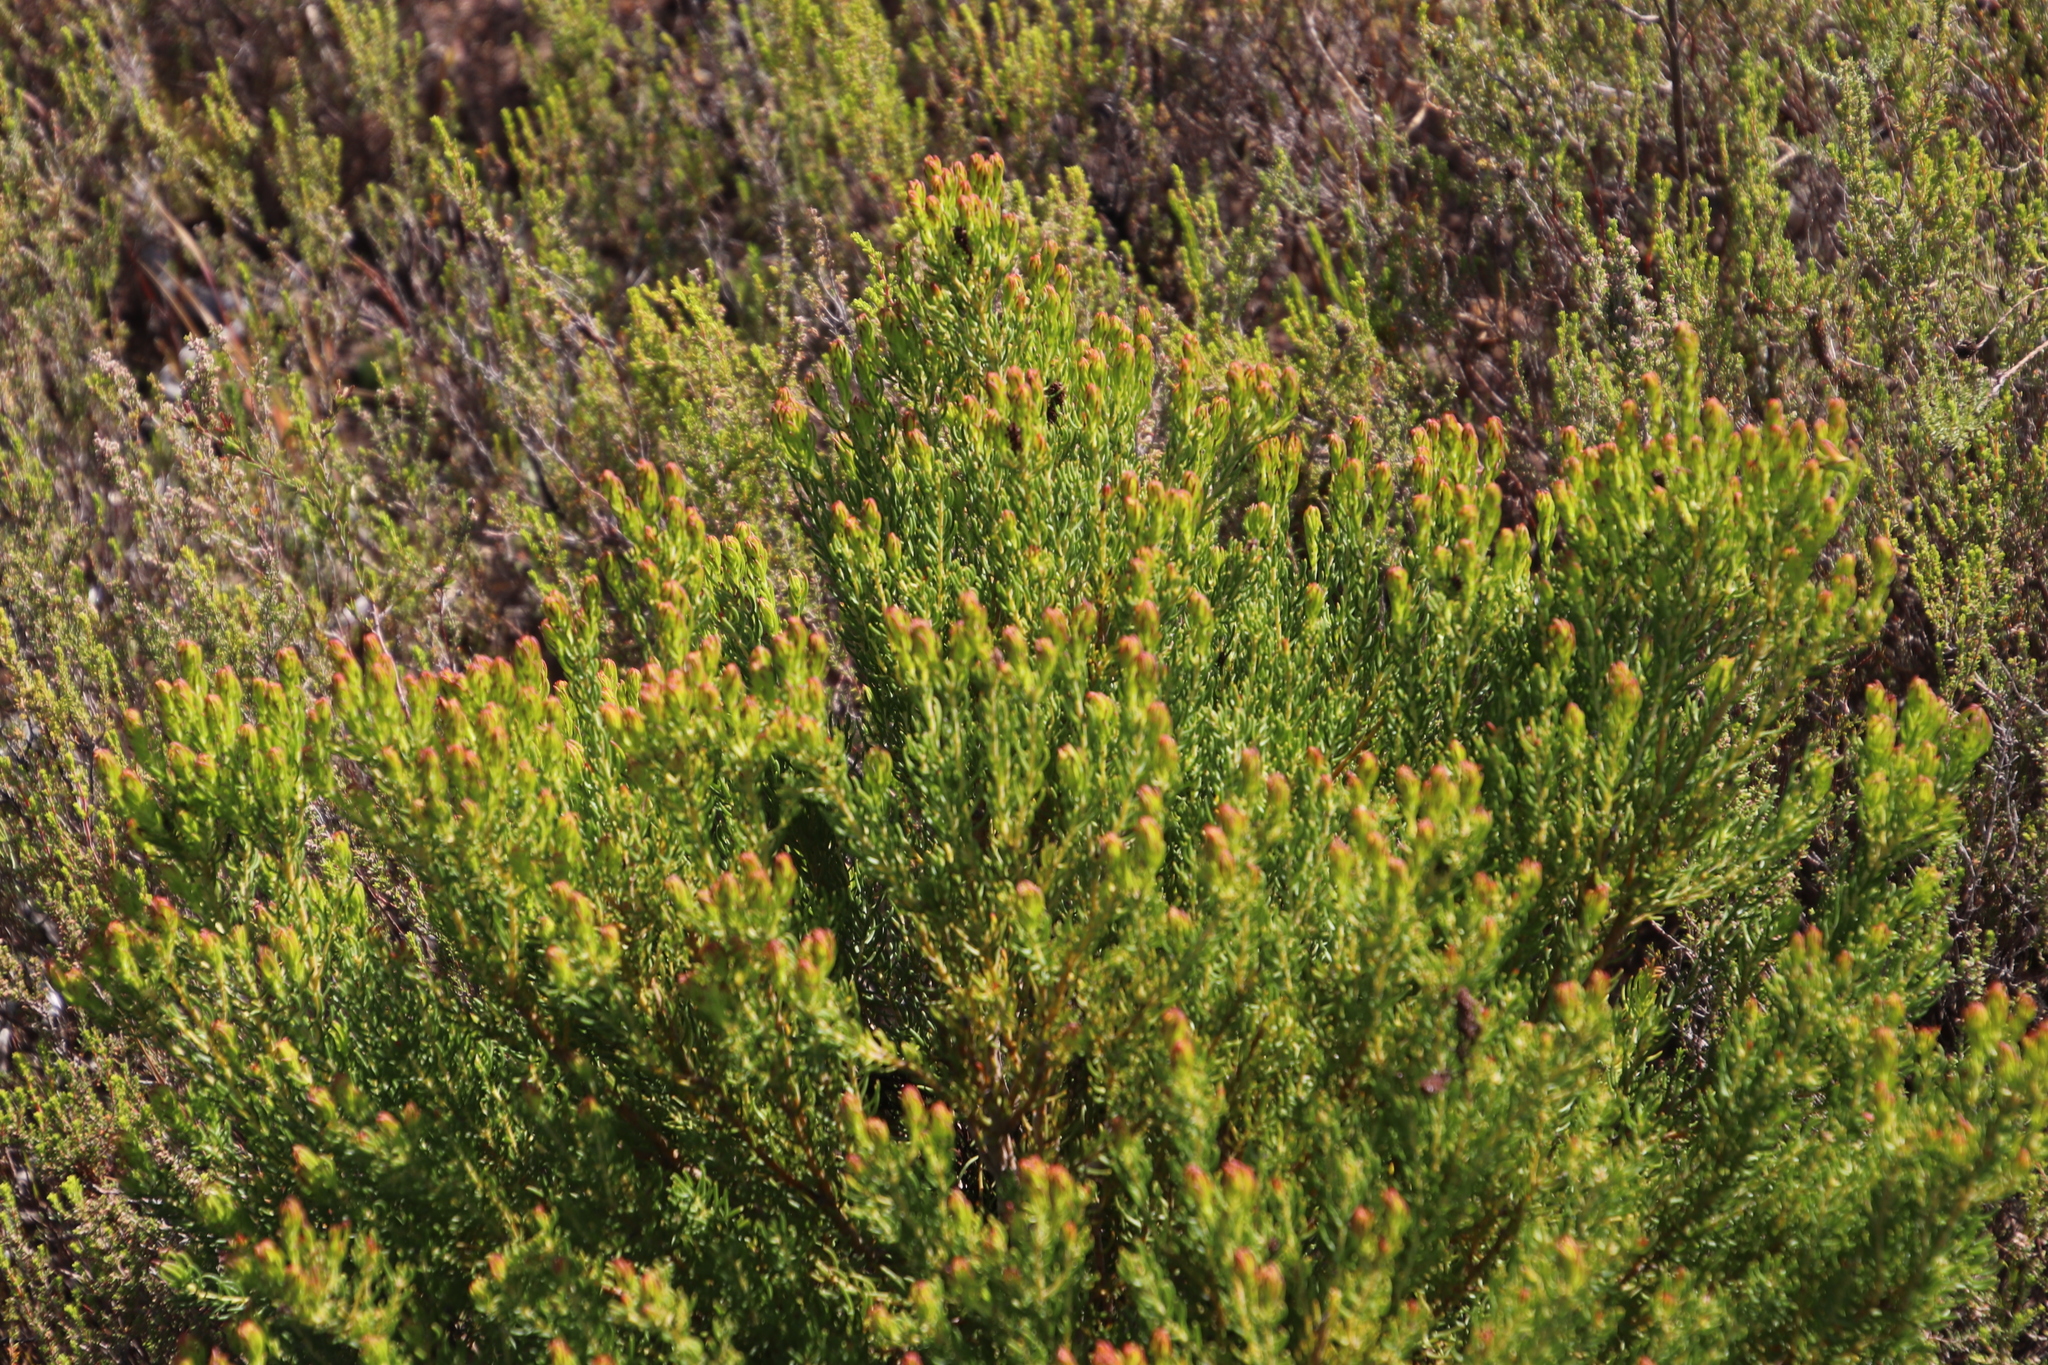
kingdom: Plantae
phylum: Tracheophyta
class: Magnoliopsida
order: Proteales
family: Proteaceae
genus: Leucadendron
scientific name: Leucadendron teretifolium
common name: Needle-leaf conebush
